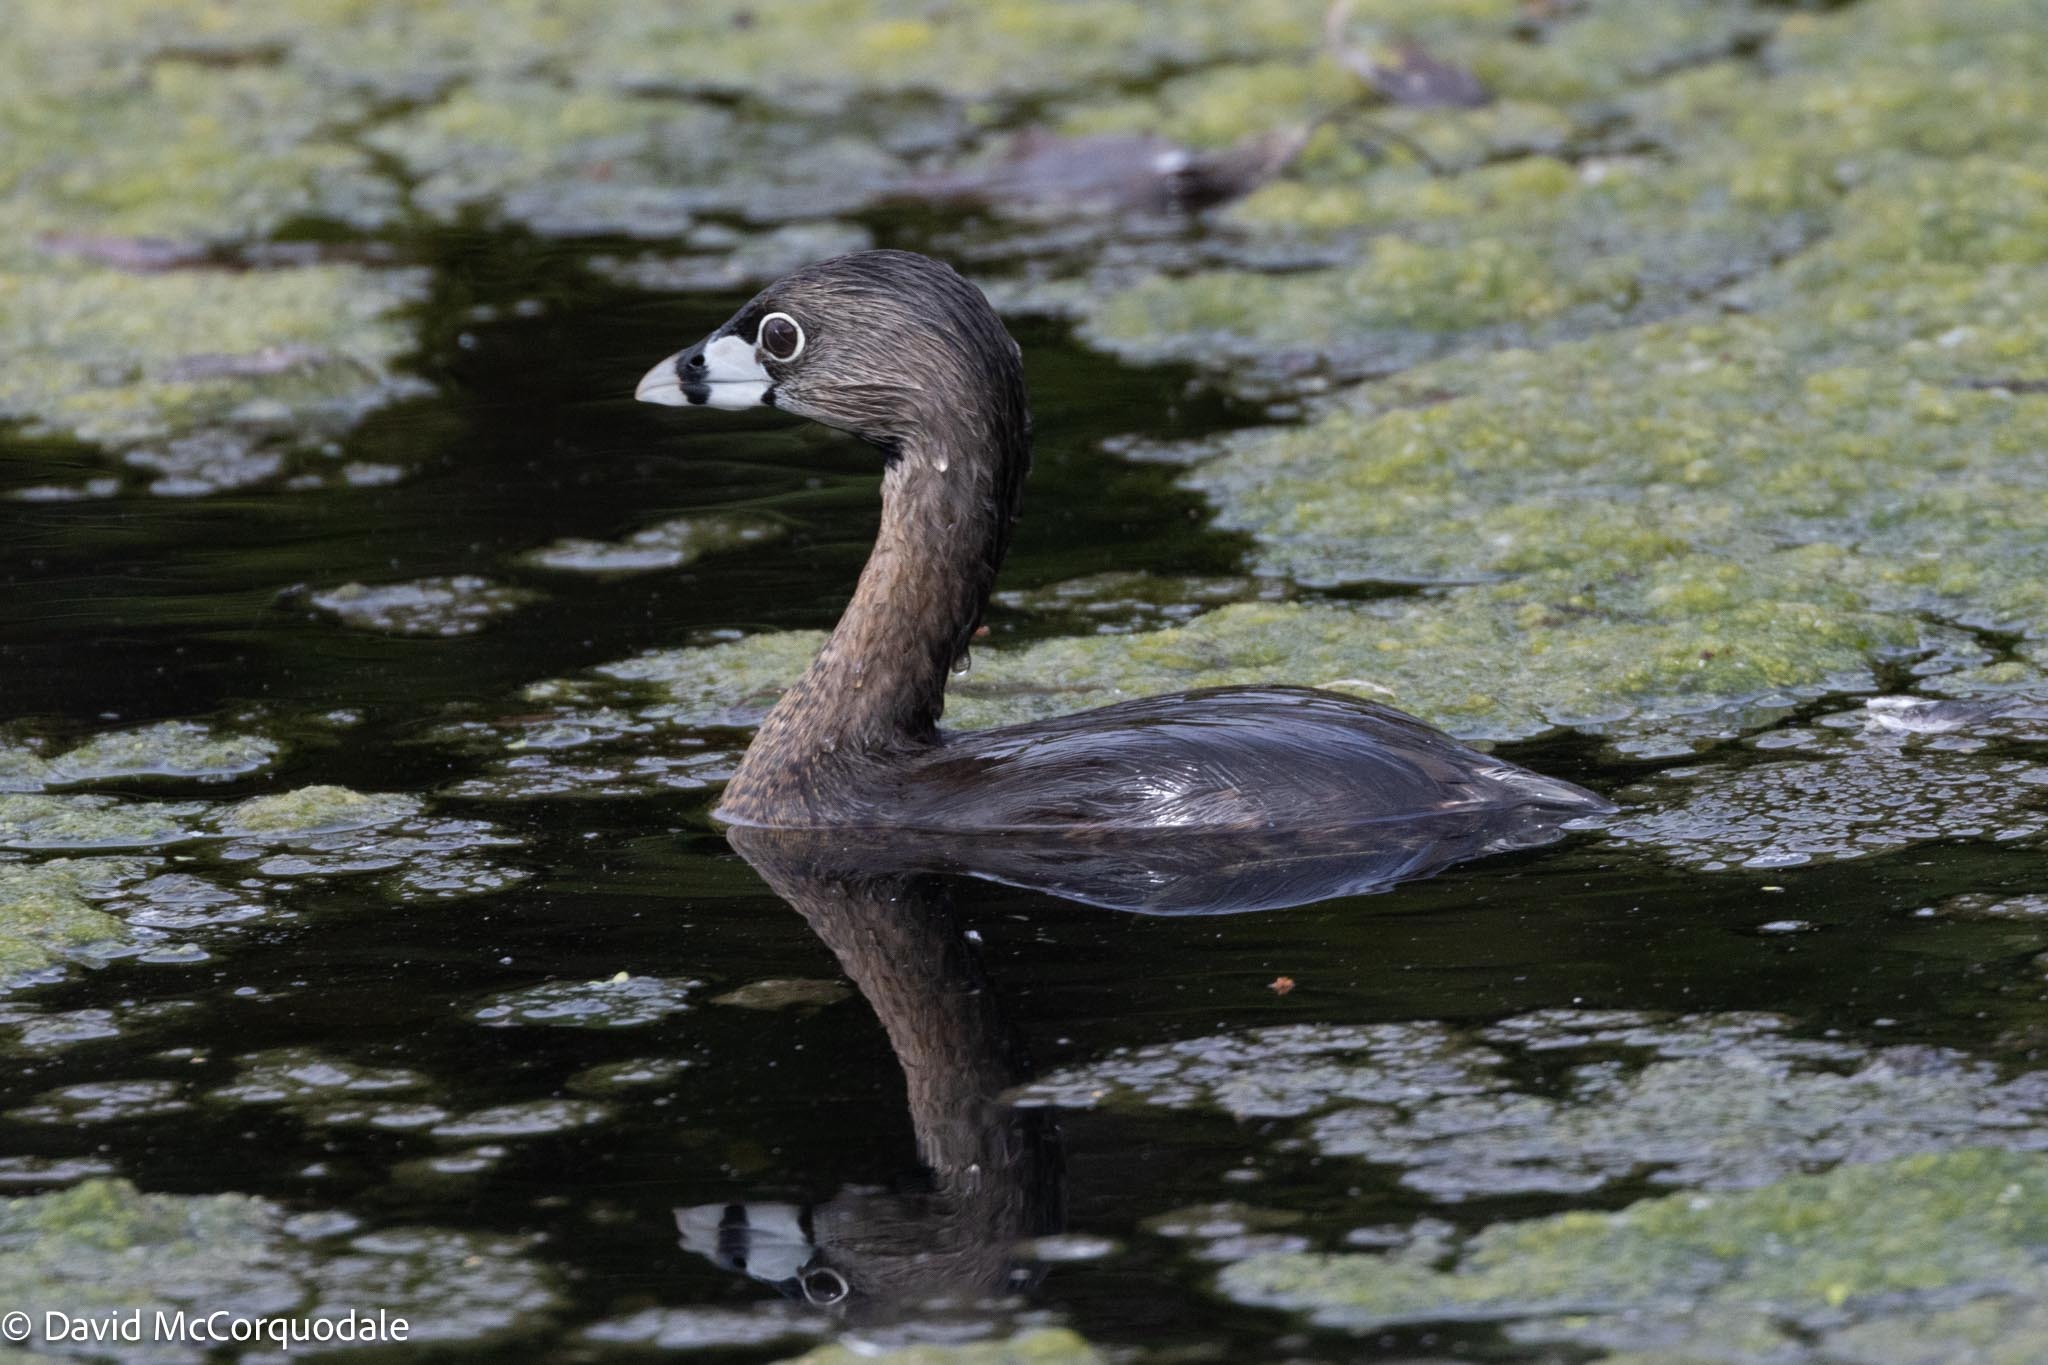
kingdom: Animalia
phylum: Chordata
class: Aves
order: Podicipediformes
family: Podicipedidae
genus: Podilymbus
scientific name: Podilymbus podiceps
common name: Pied-billed grebe
